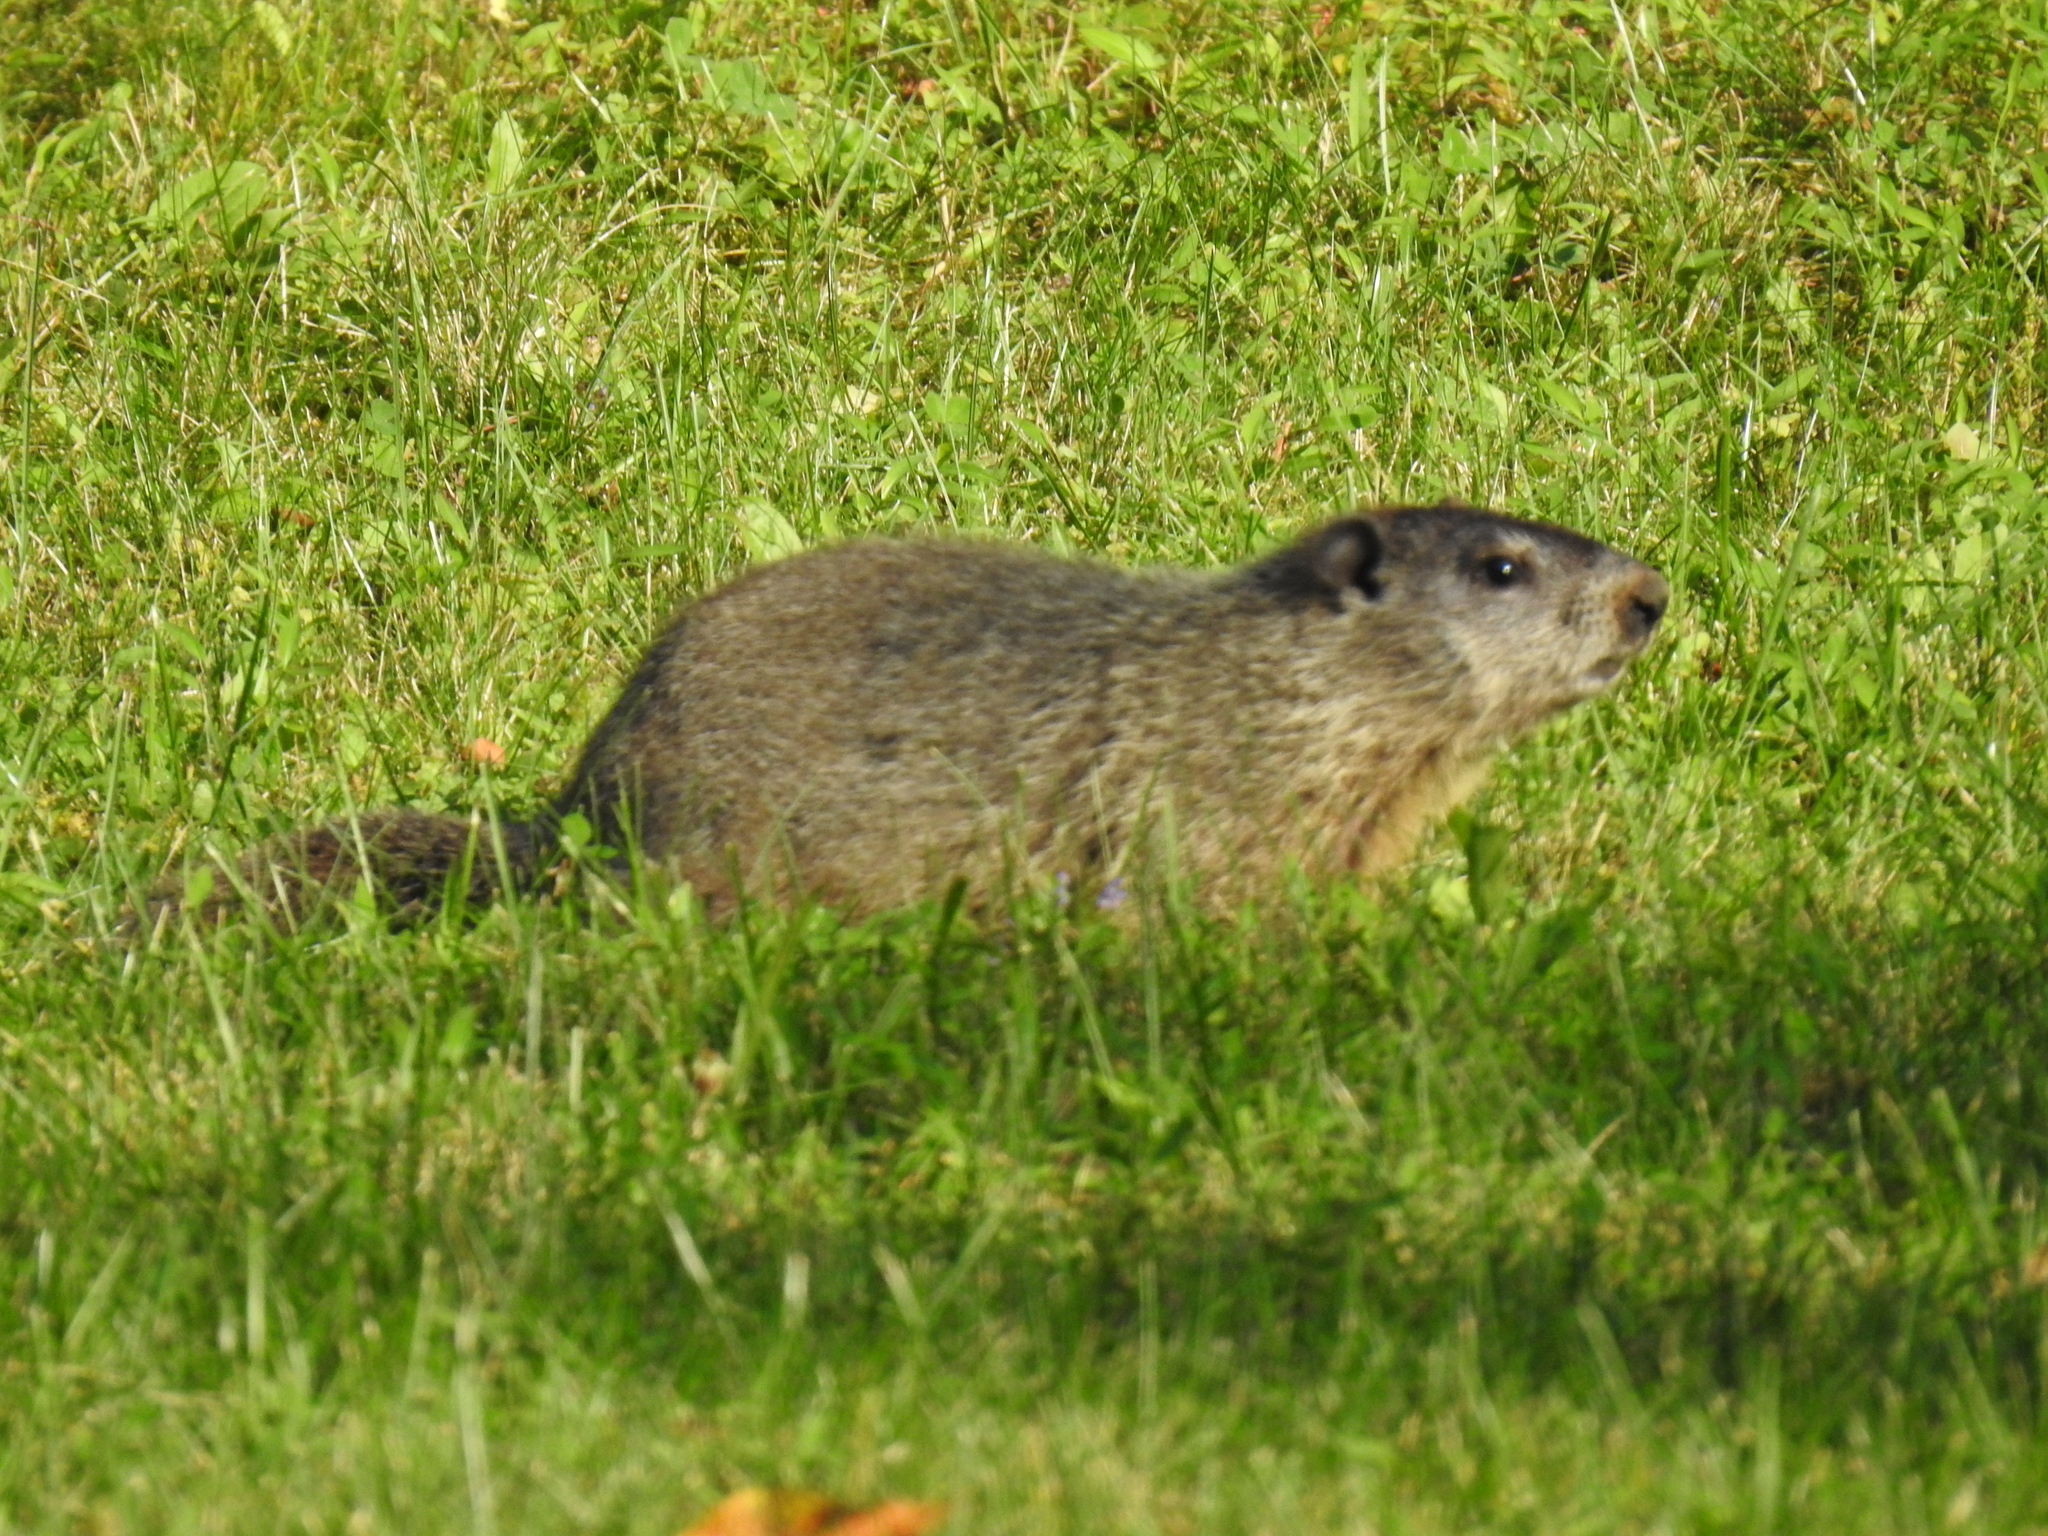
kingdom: Animalia
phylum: Chordata
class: Mammalia
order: Rodentia
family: Sciuridae
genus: Marmota
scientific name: Marmota monax
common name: Groundhog
